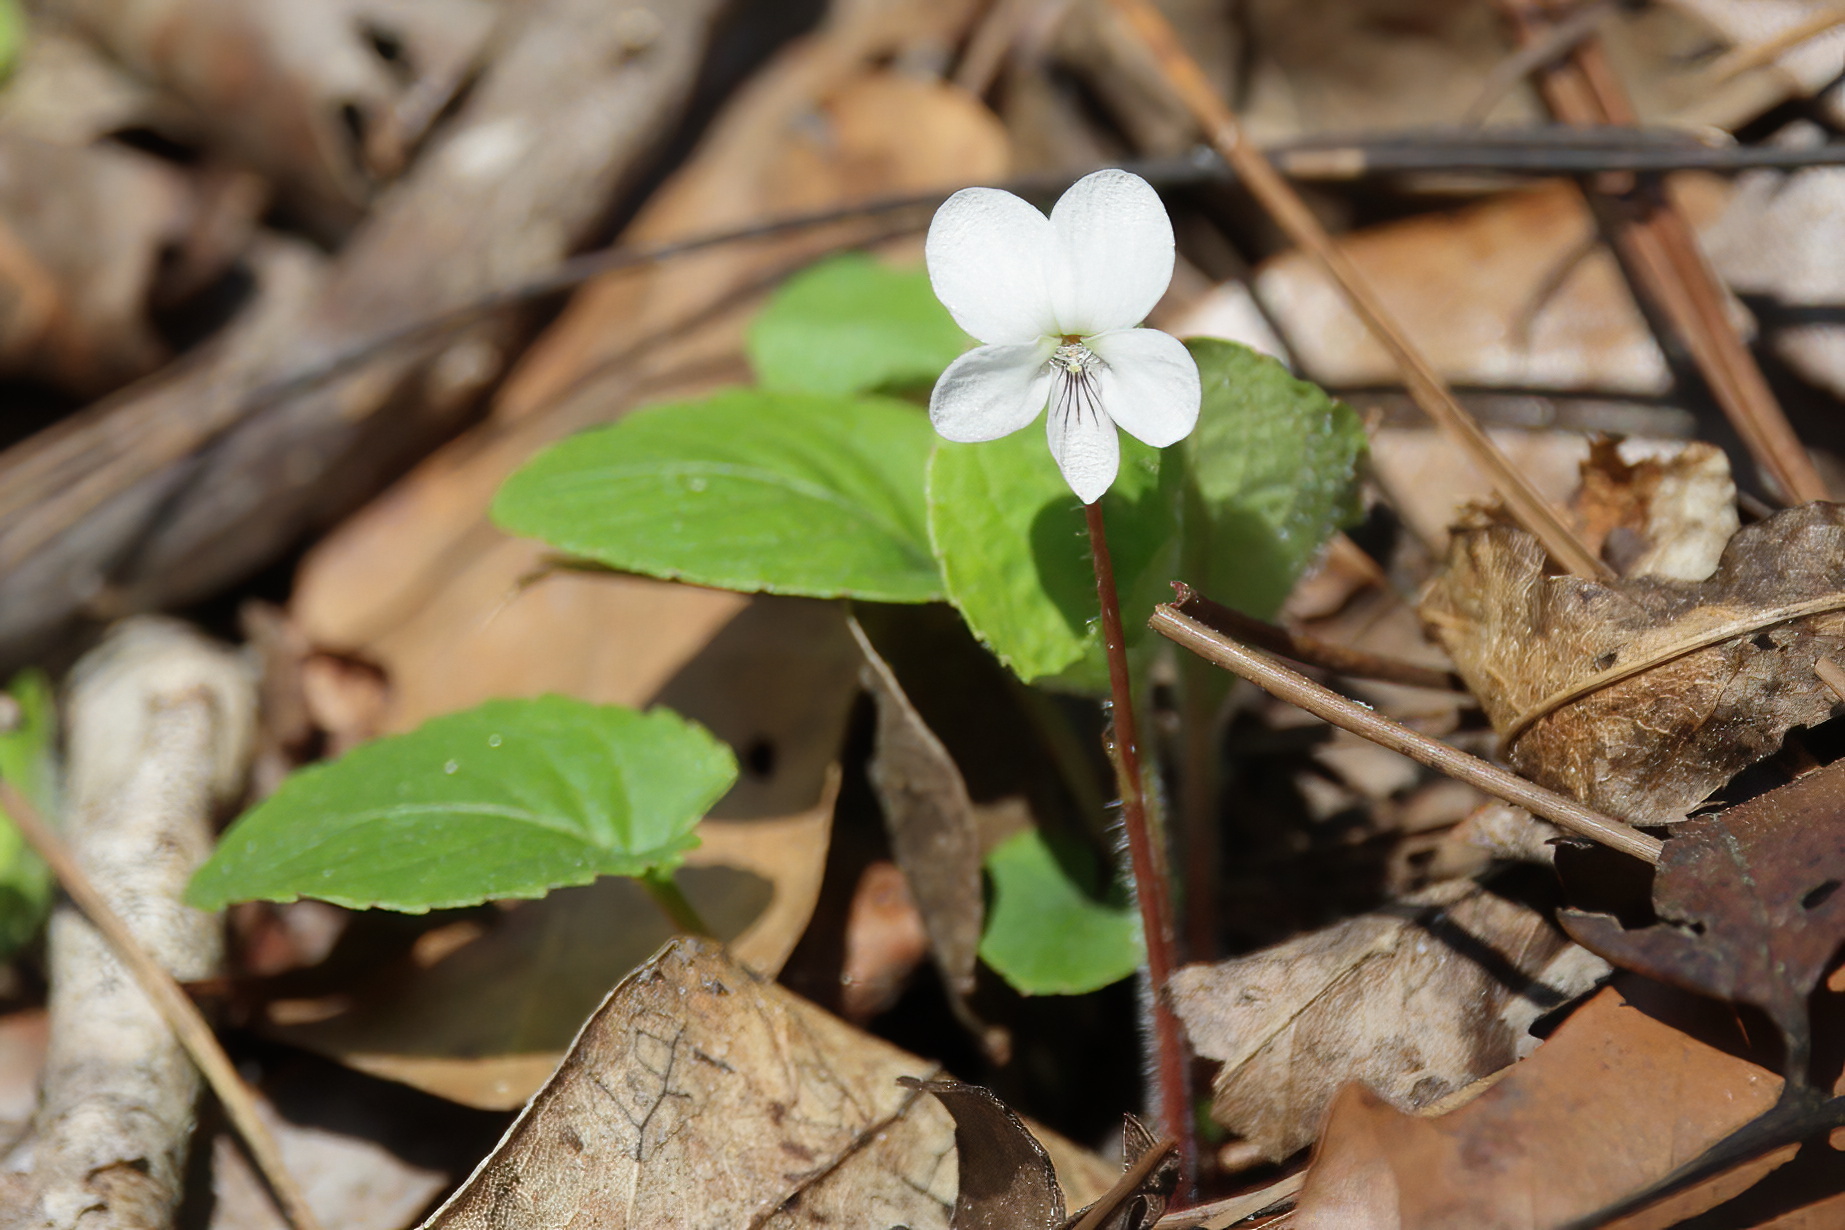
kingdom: Plantae
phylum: Tracheophyta
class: Magnoliopsida
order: Malpighiales
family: Violaceae
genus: Viola
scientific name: Viola primulifolia
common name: Primrose-leaf violet
